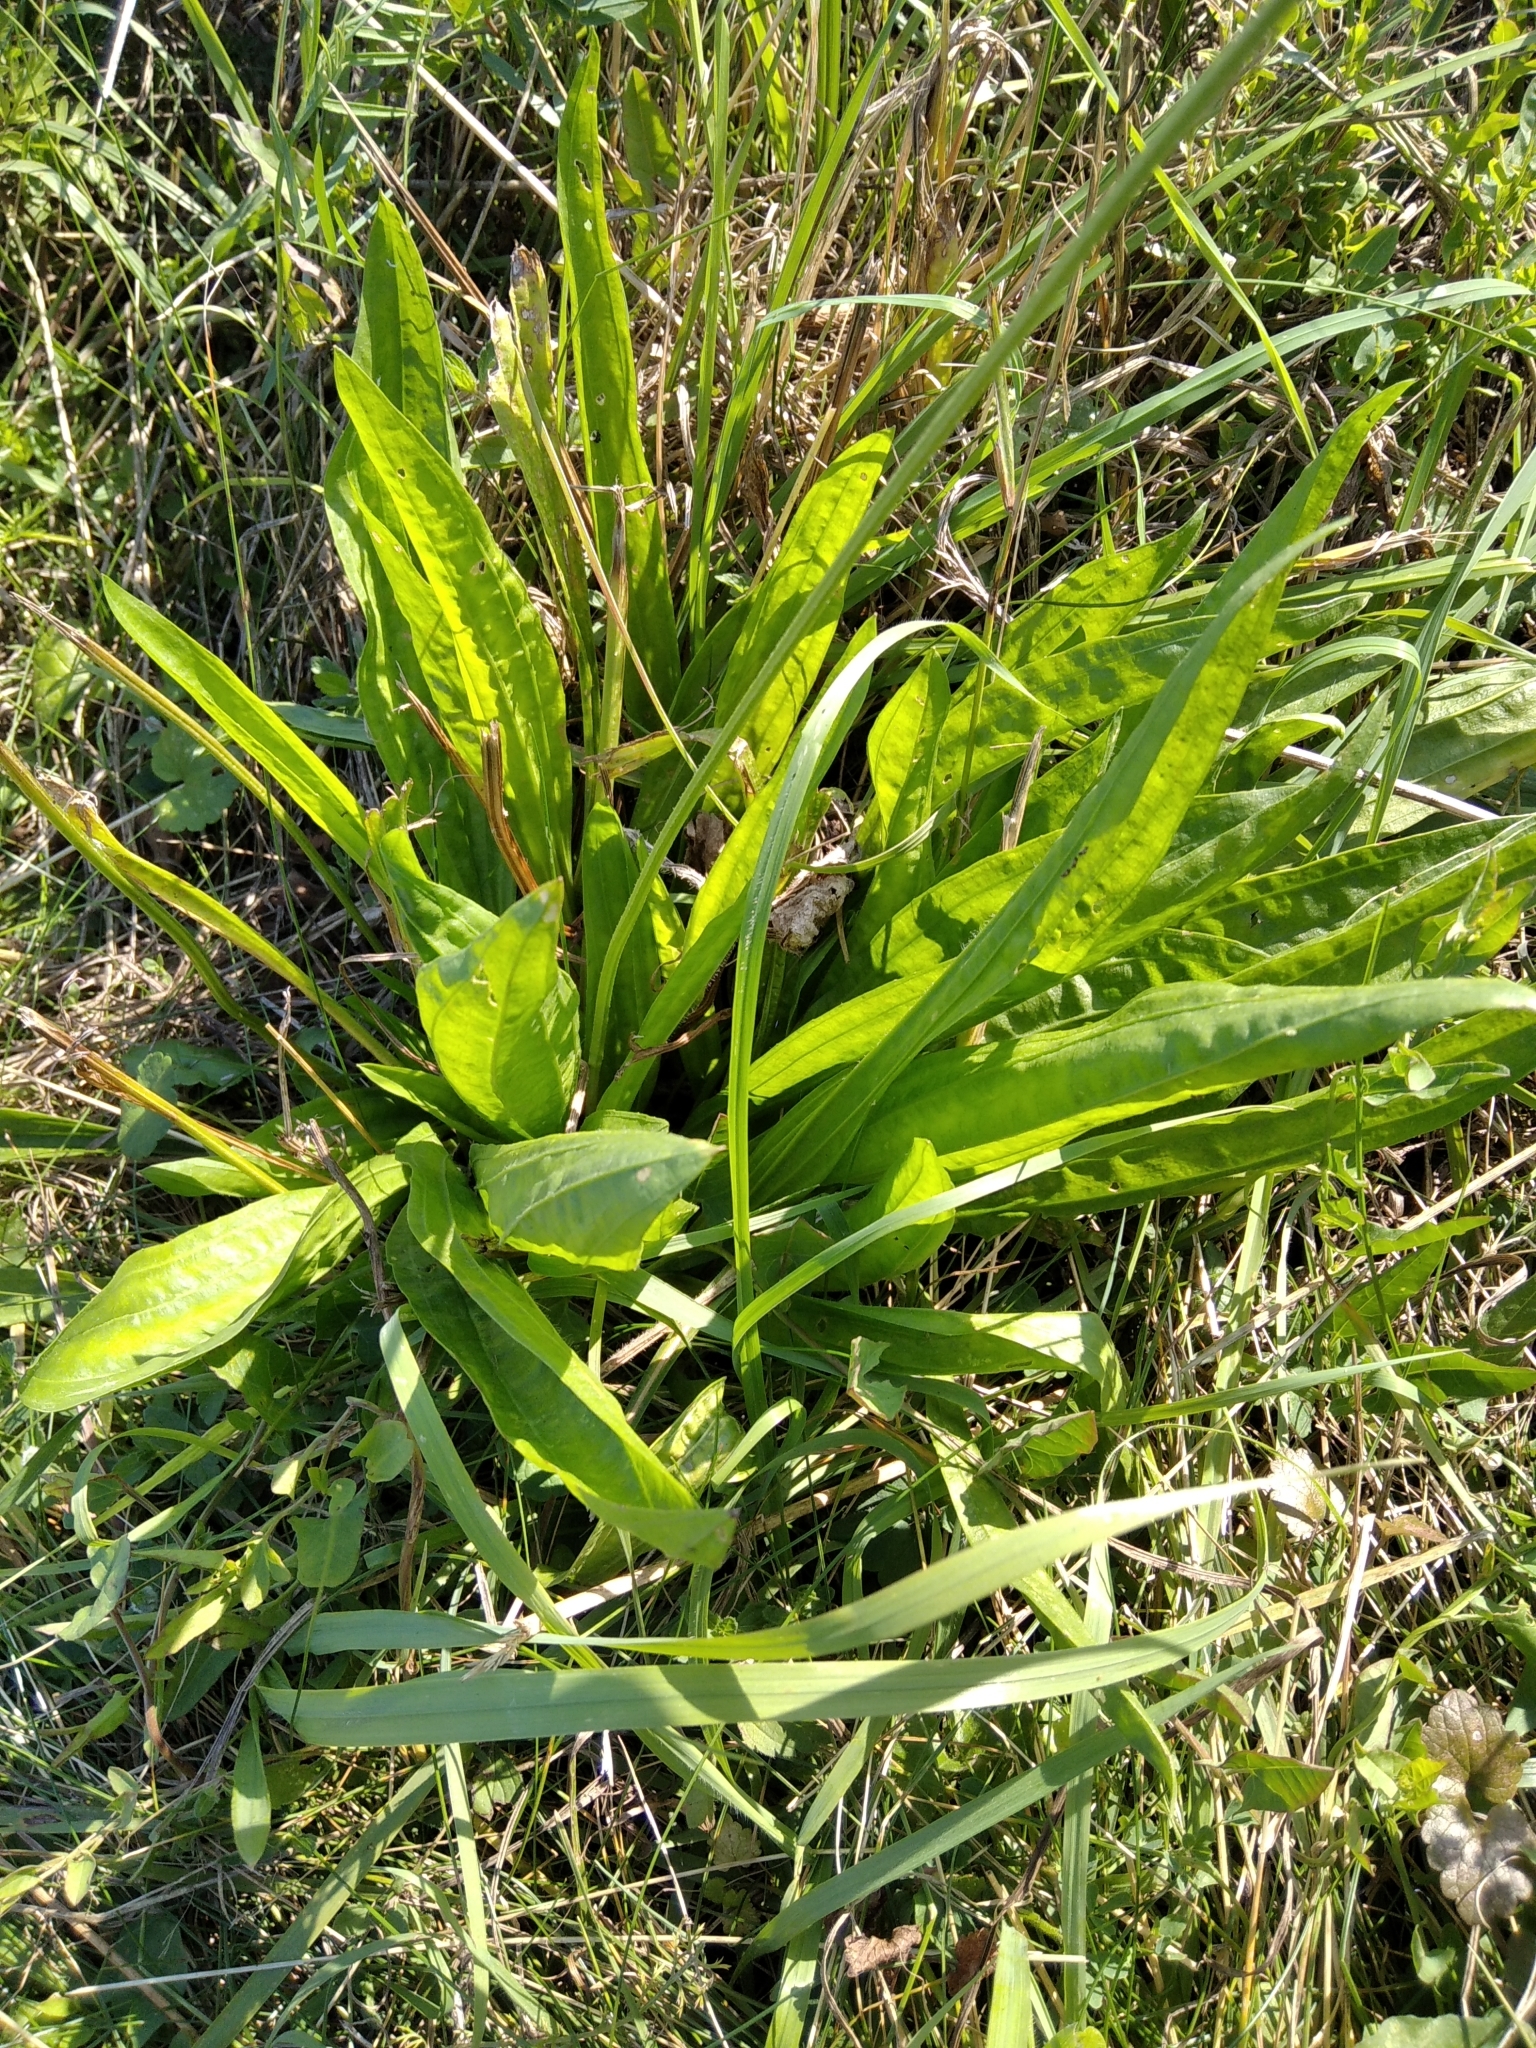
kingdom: Plantae
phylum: Tracheophyta
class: Magnoliopsida
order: Lamiales
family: Plantaginaceae
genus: Plantago
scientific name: Plantago lanceolata
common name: Ribwort plantain
